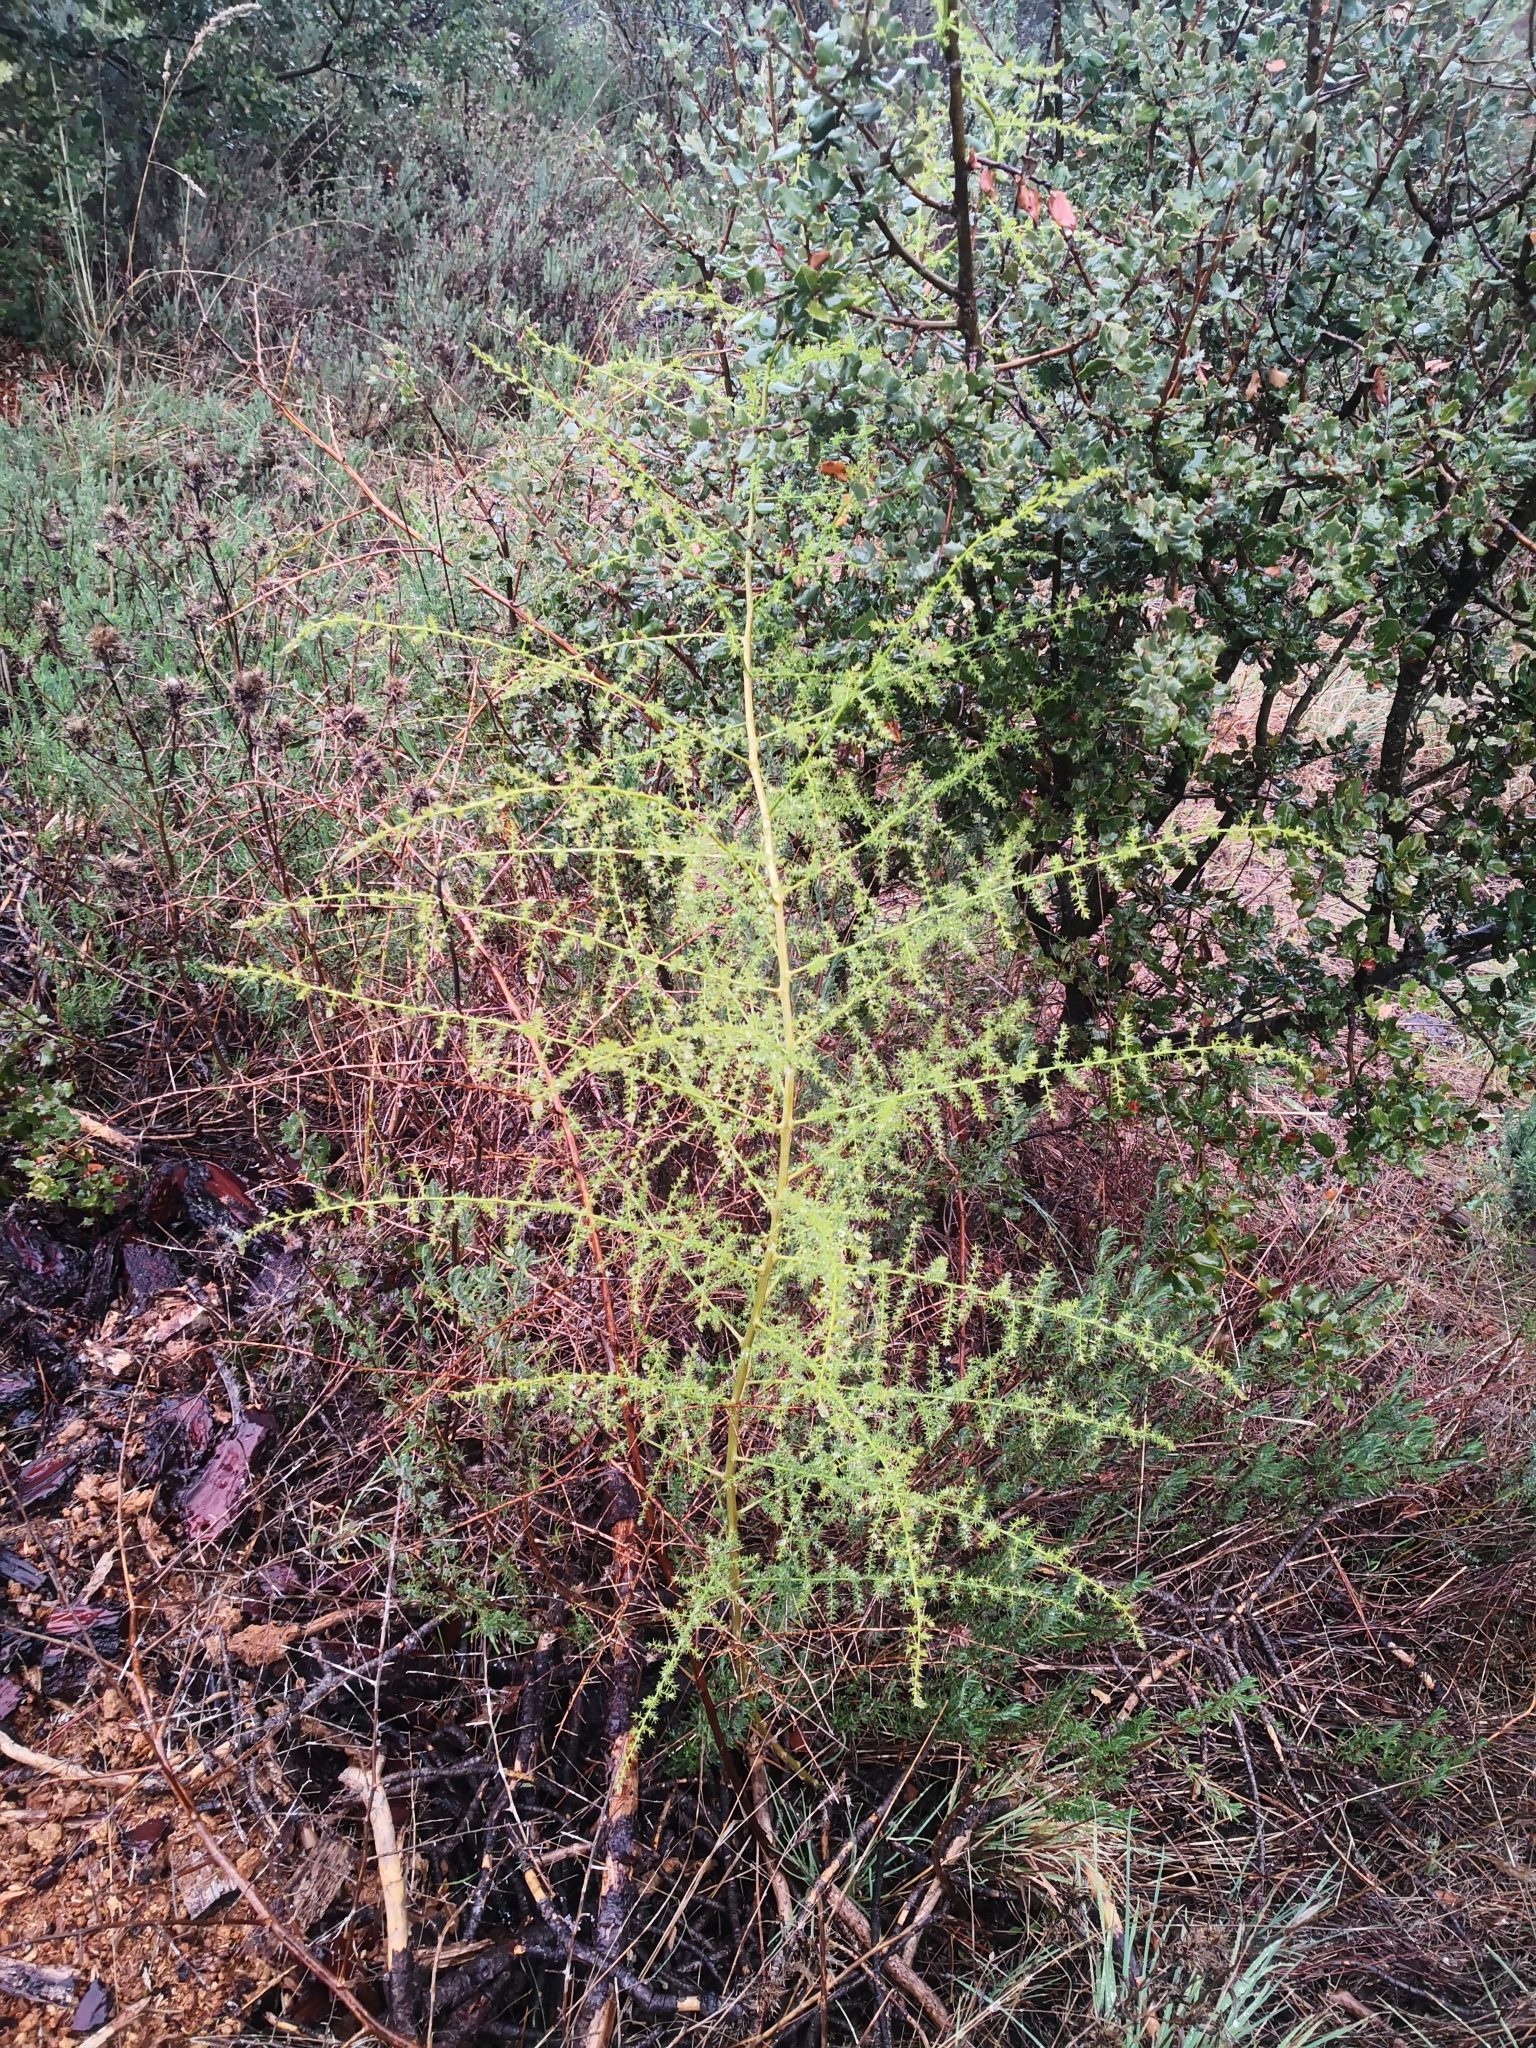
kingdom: Plantae
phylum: Tracheophyta
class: Liliopsida
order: Asparagales
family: Asparagaceae
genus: Asparagus
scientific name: Asparagus acutifolius
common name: Wild asparagus
